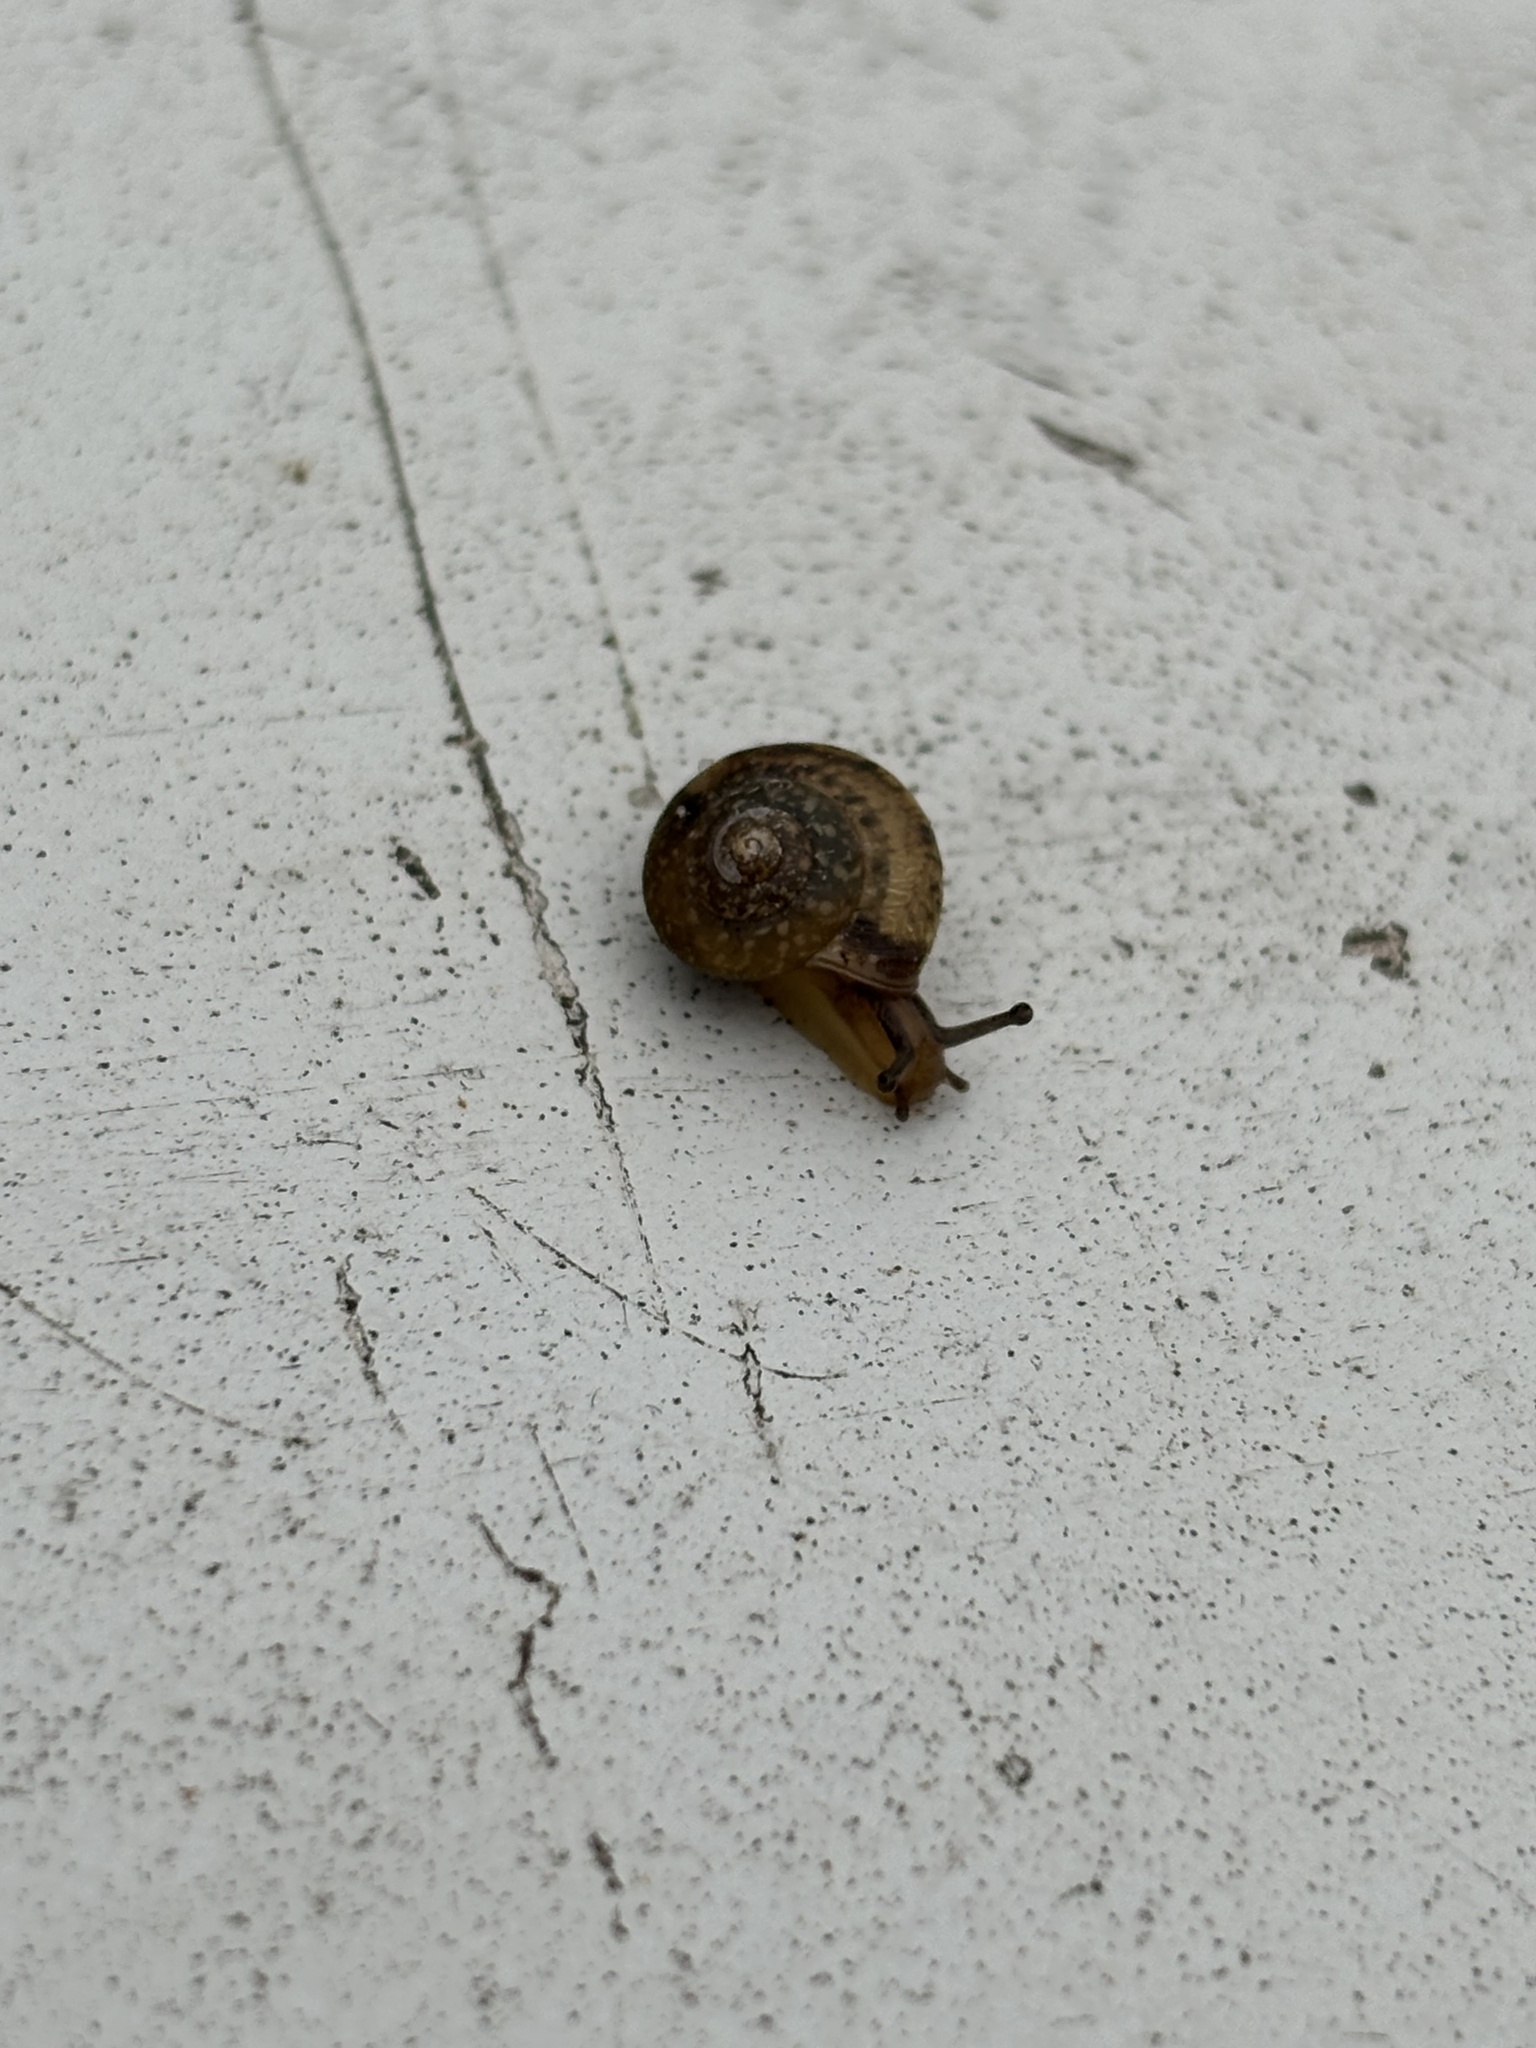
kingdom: Animalia
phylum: Mollusca
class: Gastropoda
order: Stylommatophora
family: Hygromiidae
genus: Hygromia
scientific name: Hygromia cinctella
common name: Girdled snail
